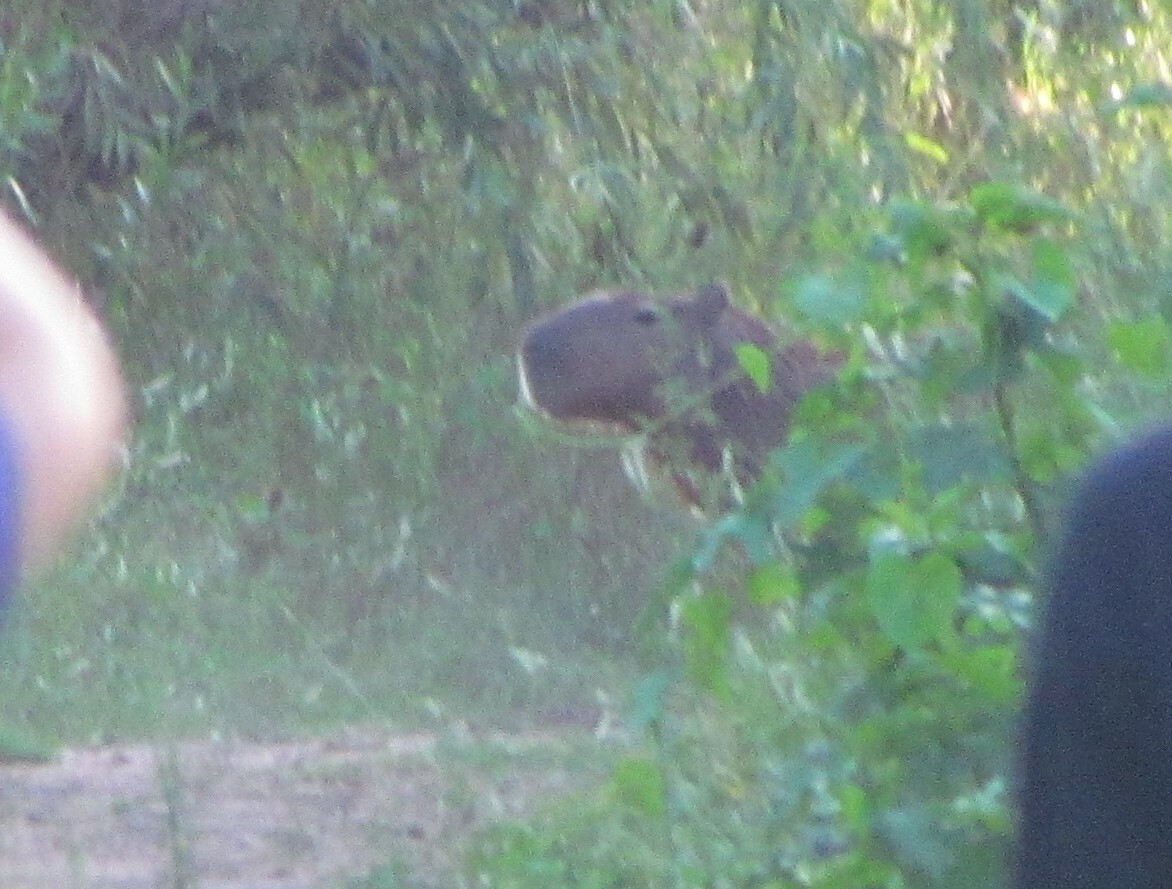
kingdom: Animalia
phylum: Chordata
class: Mammalia
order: Rodentia
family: Caviidae
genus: Hydrochoerus
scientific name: Hydrochoerus hydrochaeris
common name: Capybara
